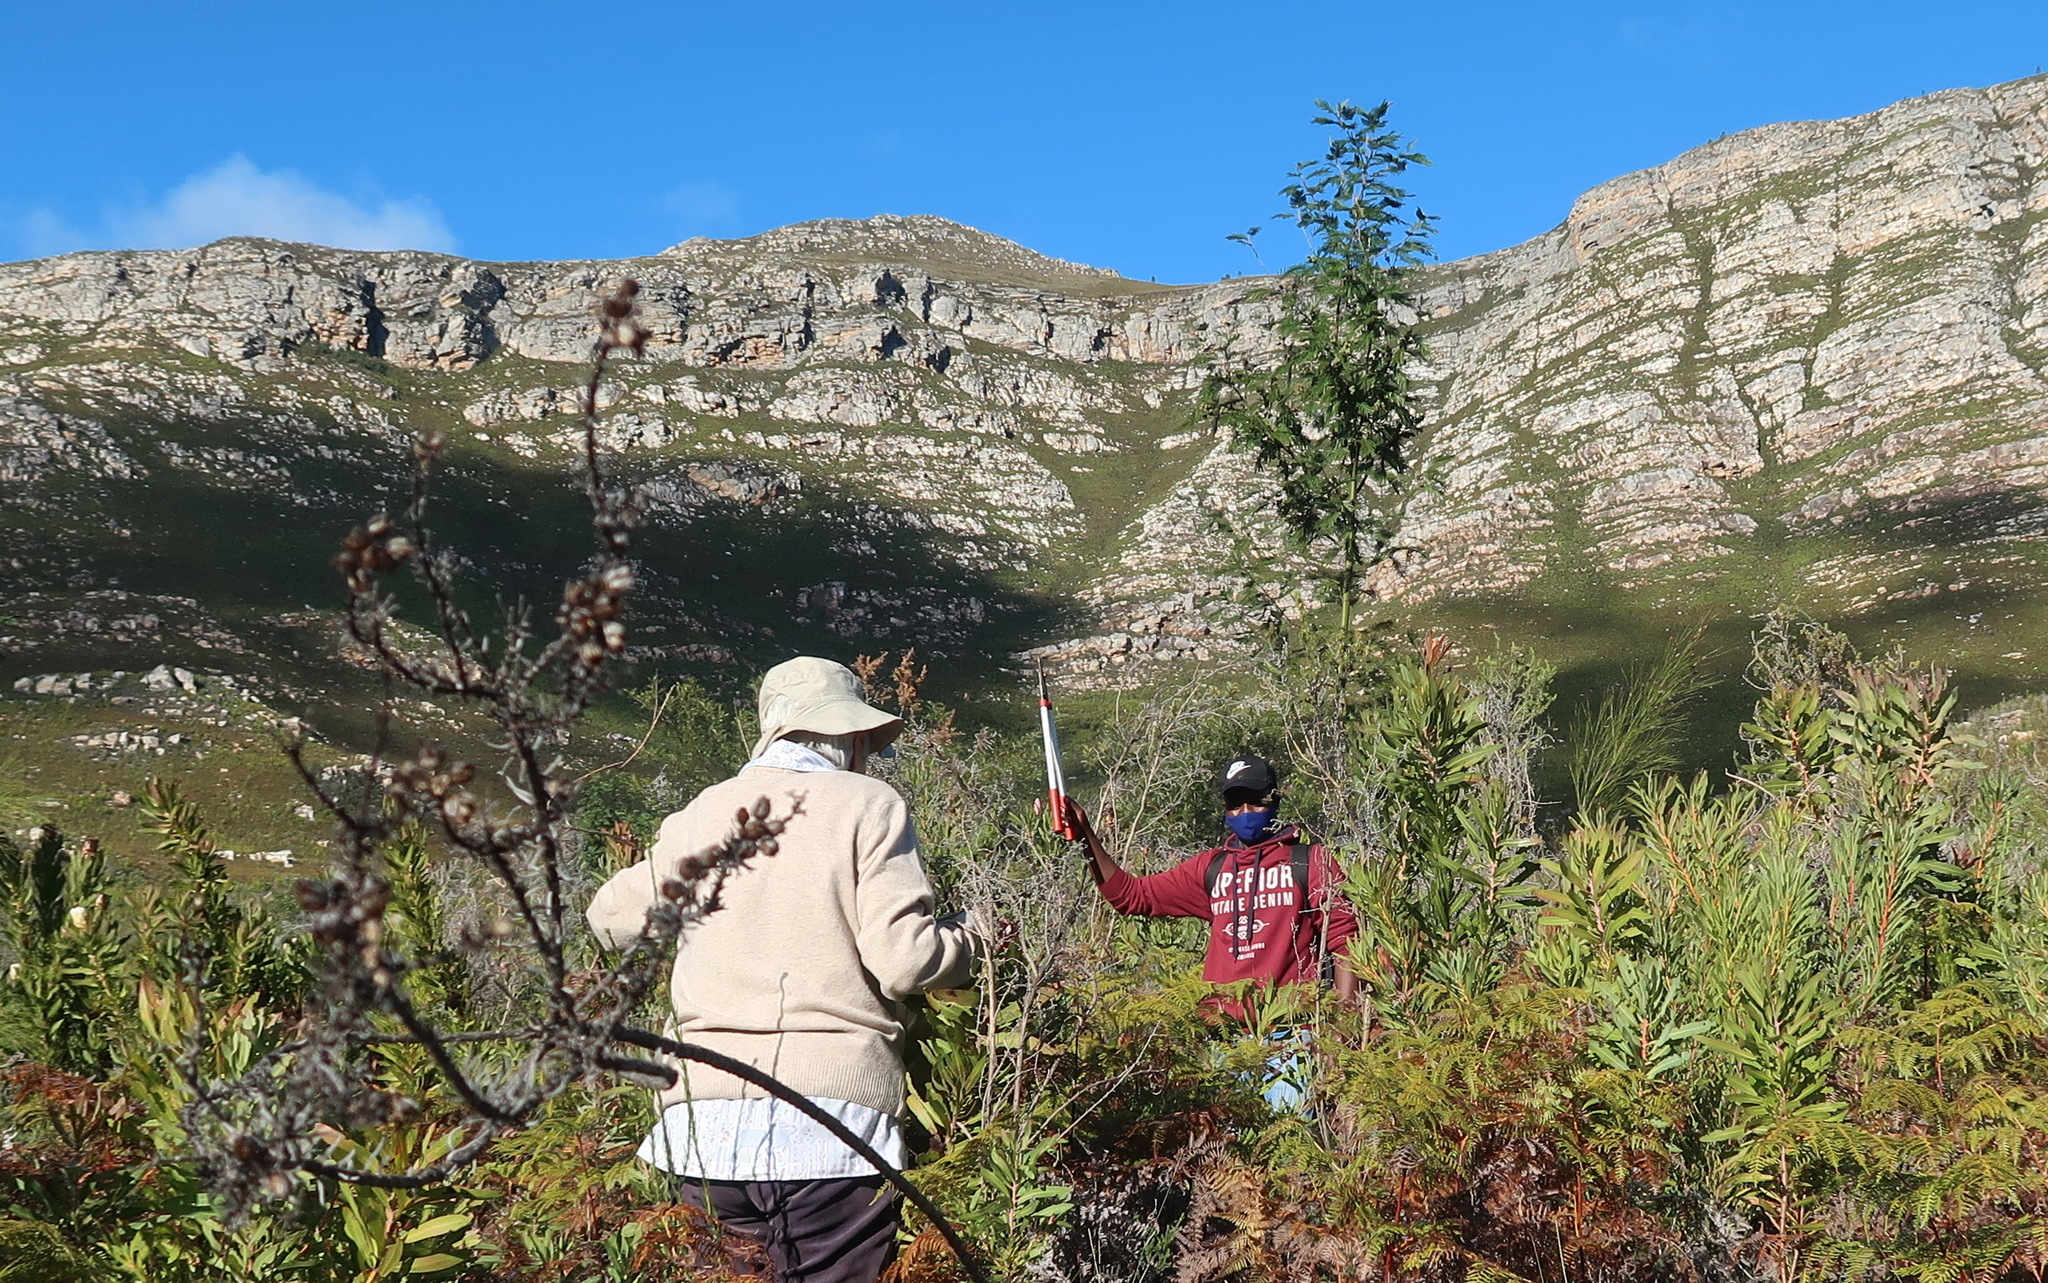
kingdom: Plantae
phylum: Tracheophyta
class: Magnoliopsida
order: Fabales
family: Fabaceae
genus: Acacia
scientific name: Acacia mearnsii
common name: Black wattle
